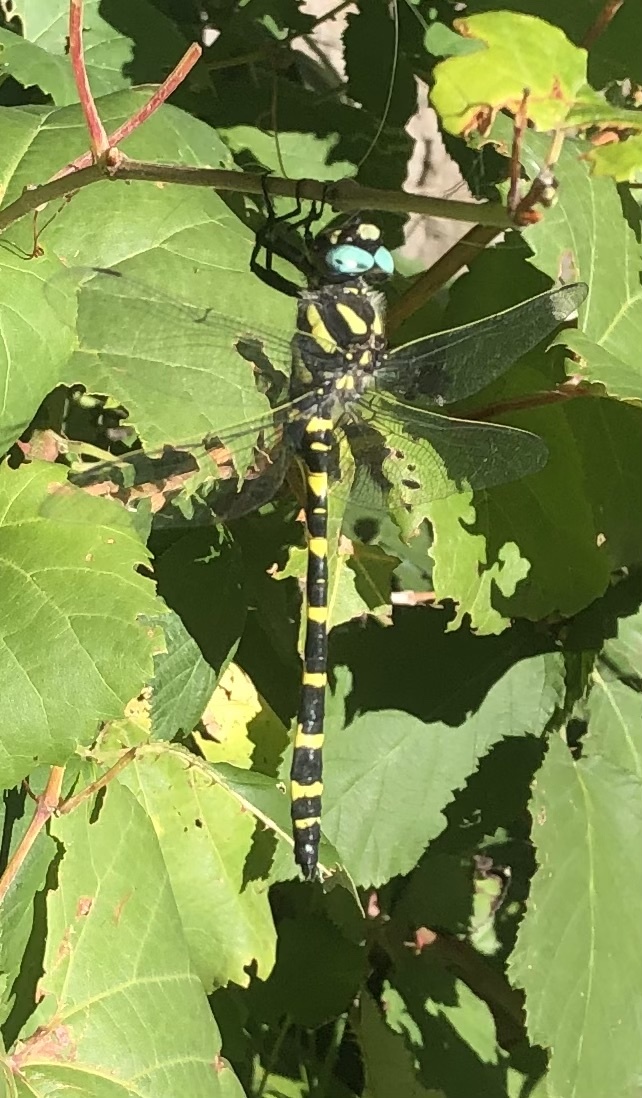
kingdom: Animalia
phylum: Arthropoda
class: Insecta
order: Odonata
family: Cordulegastridae
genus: Cordulegaster
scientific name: Cordulegaster diadema
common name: Apache spiketail
